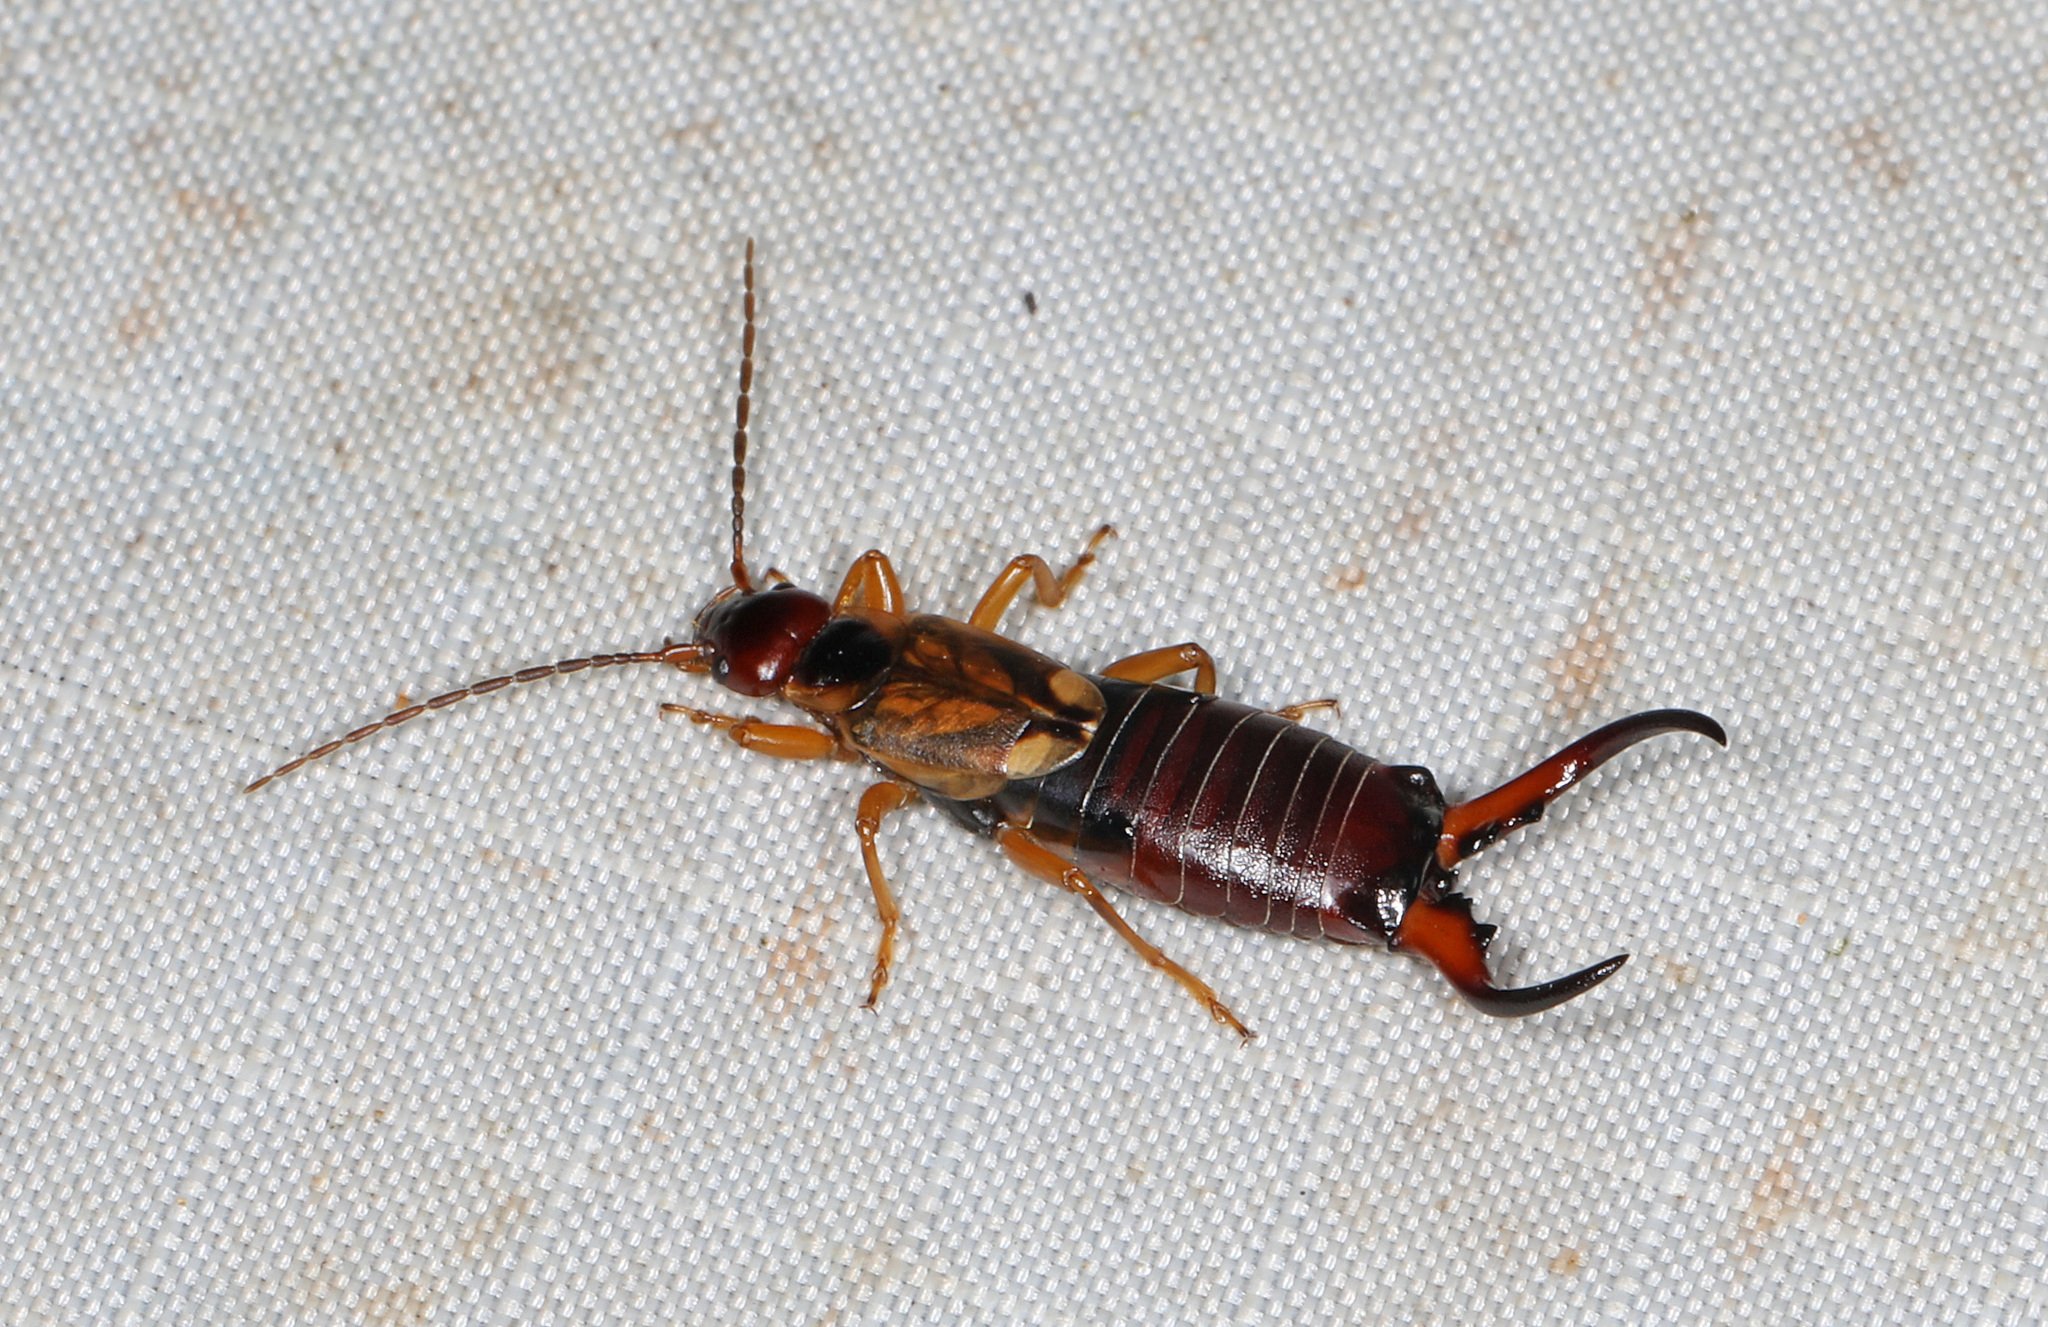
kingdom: Animalia
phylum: Arthropoda
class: Insecta
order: Dermaptera
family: Forficulidae
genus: Forficula
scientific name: Forficula
